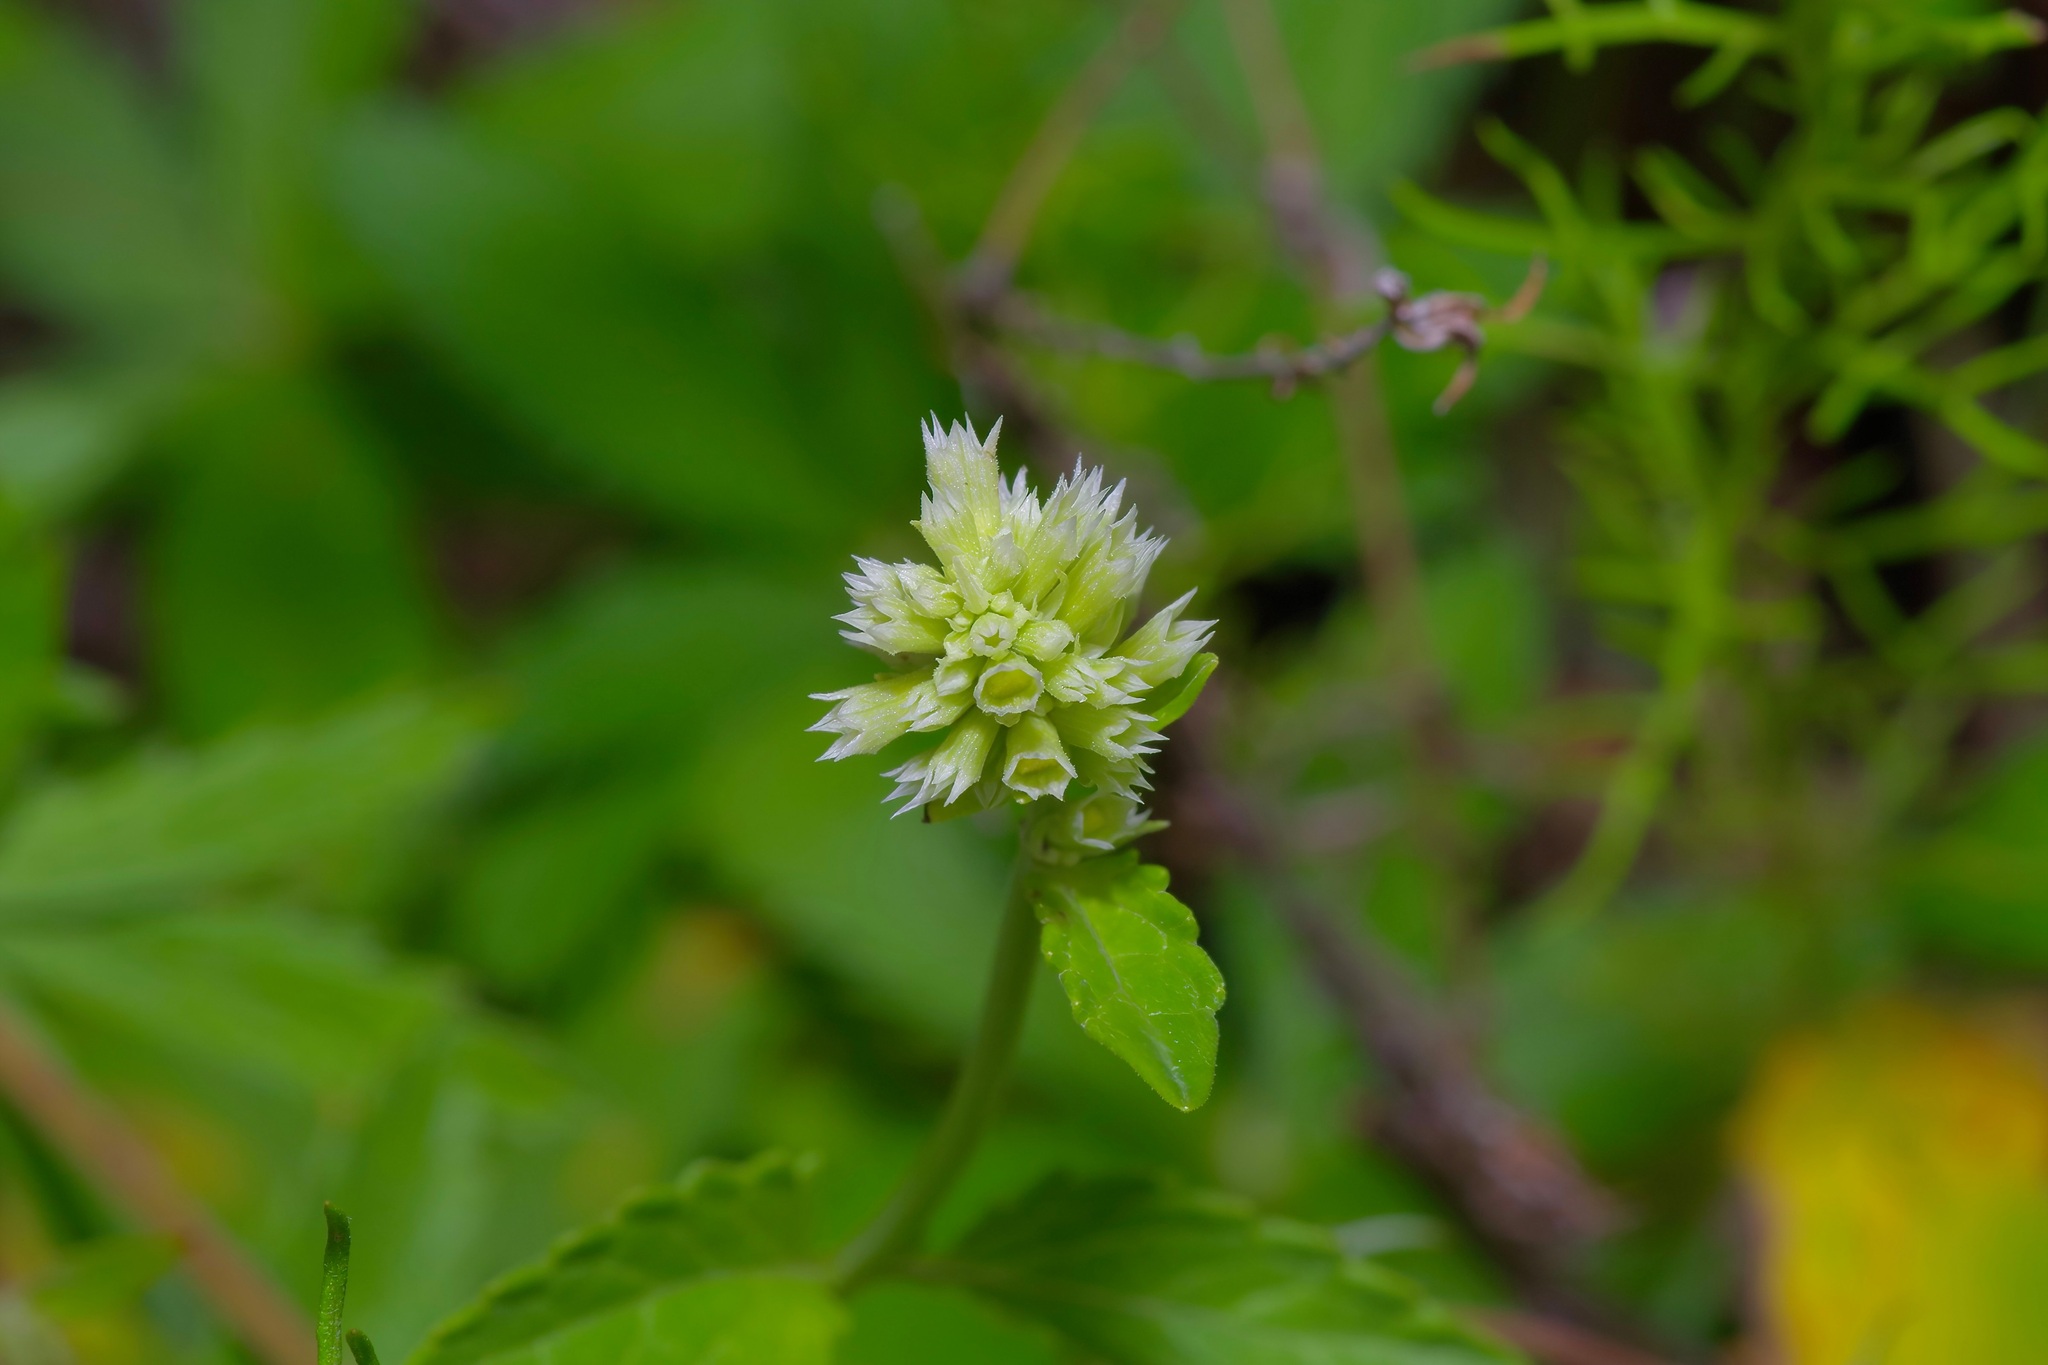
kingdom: Plantae
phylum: Tracheophyta
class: Magnoliopsida
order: Lamiales
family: Lamiaceae
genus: Agastache
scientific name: Agastache pallidiflora
